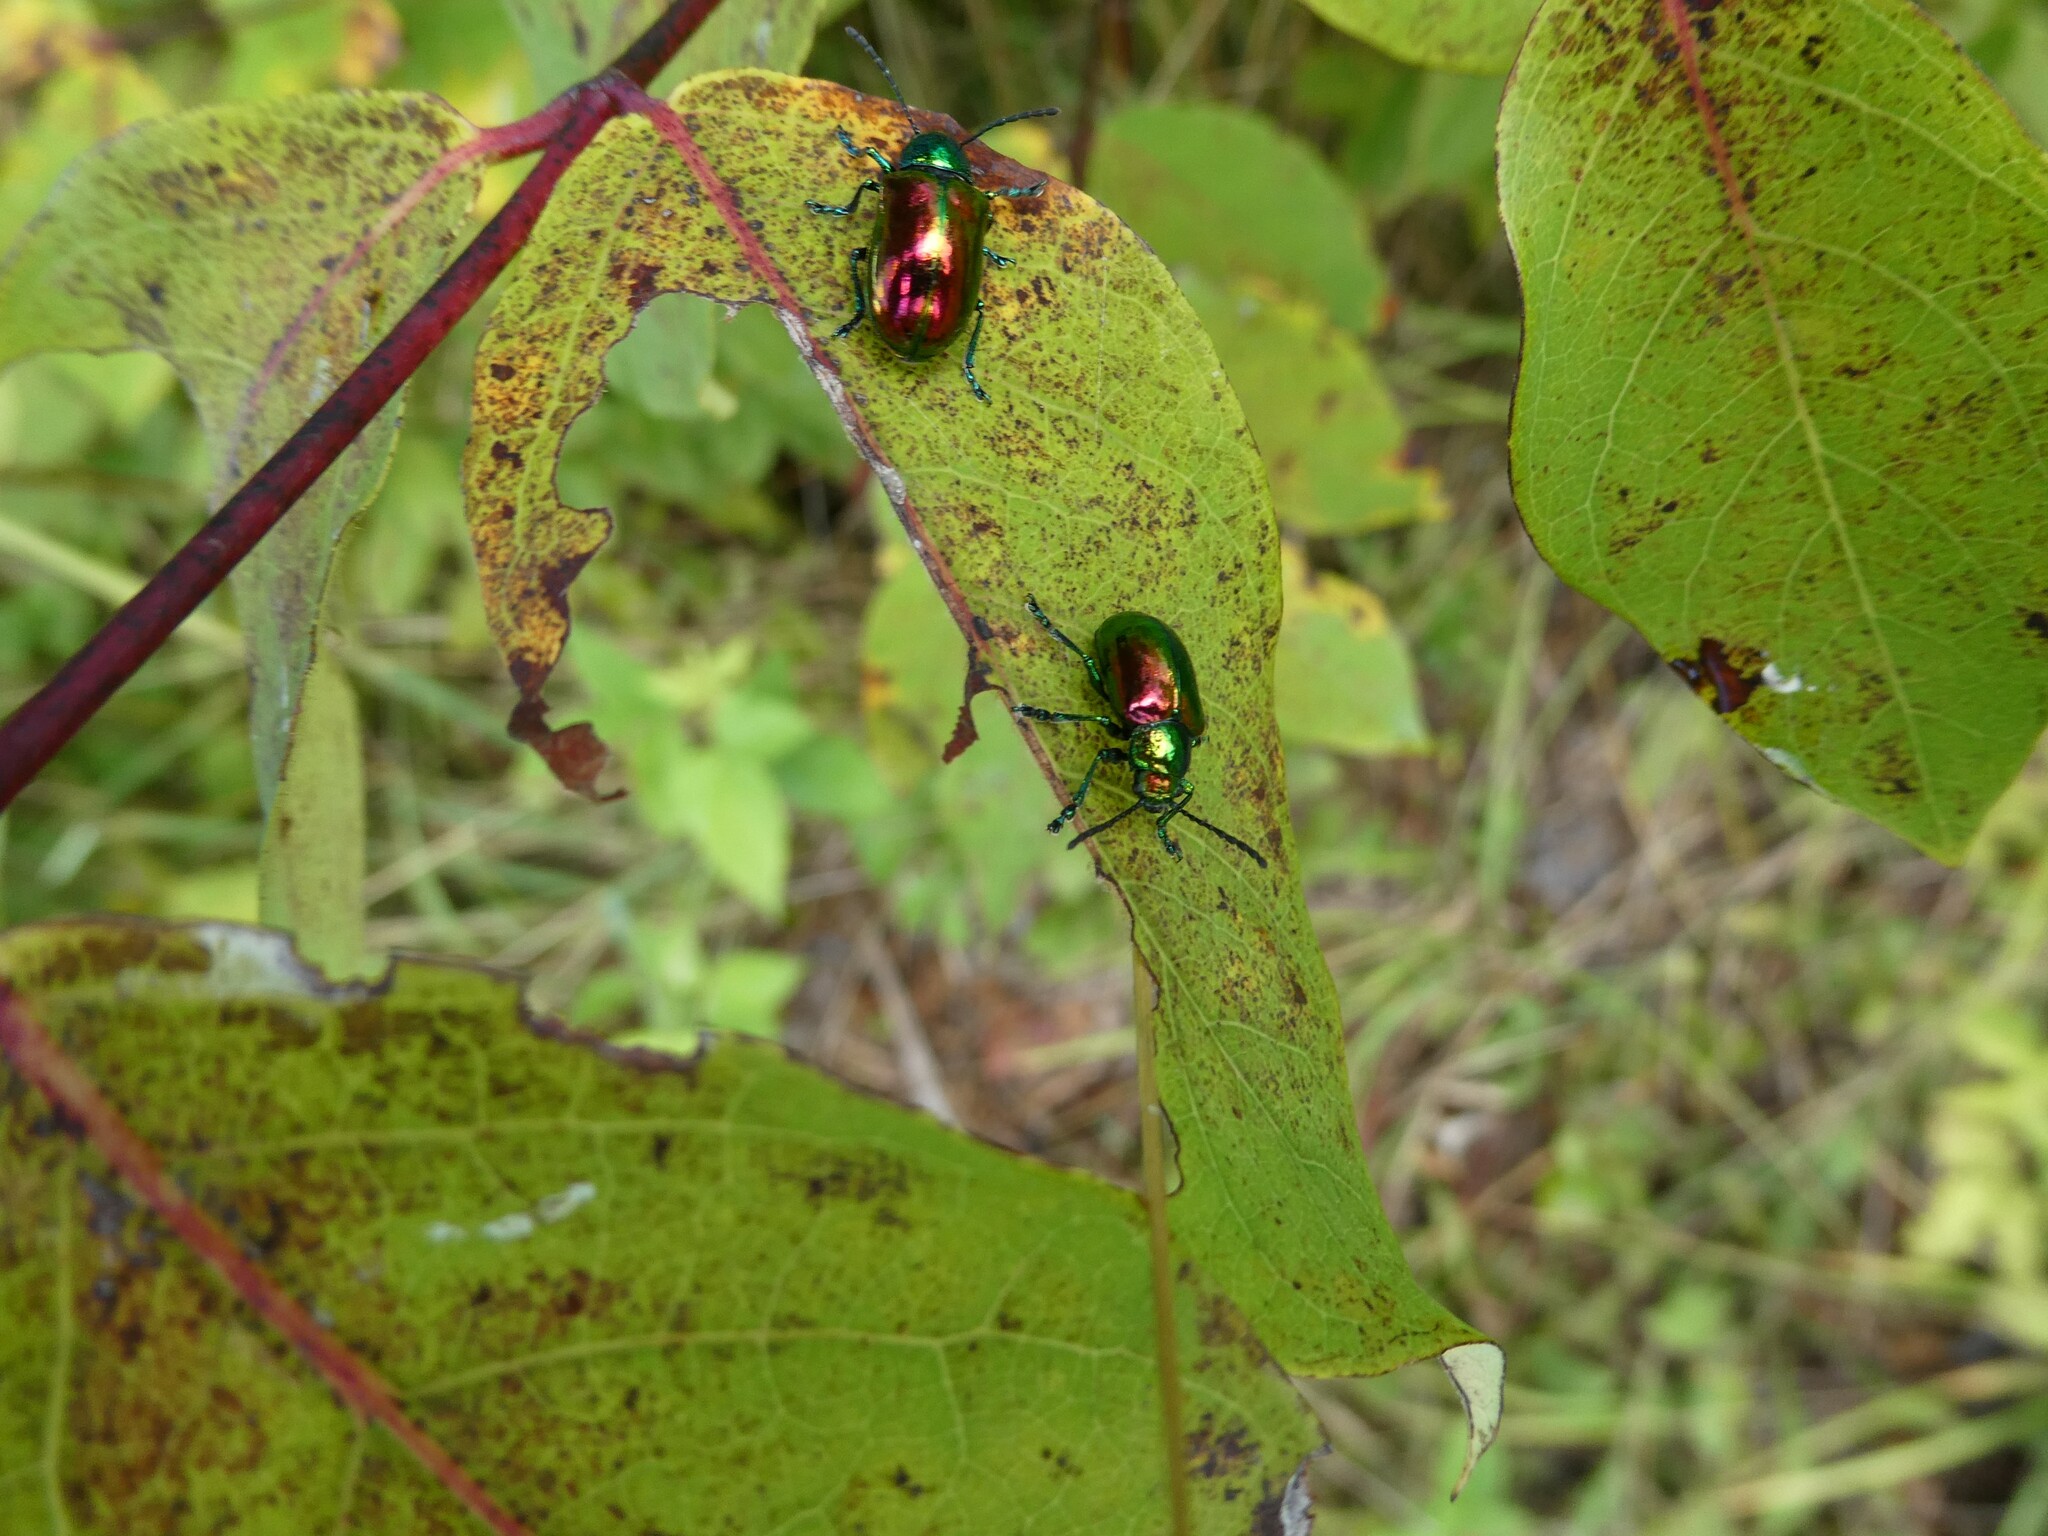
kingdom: Animalia
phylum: Arthropoda
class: Insecta
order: Coleoptera
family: Chrysomelidae
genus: Chrysochus
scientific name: Chrysochus auratus
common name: Dogbane leaf beetle
